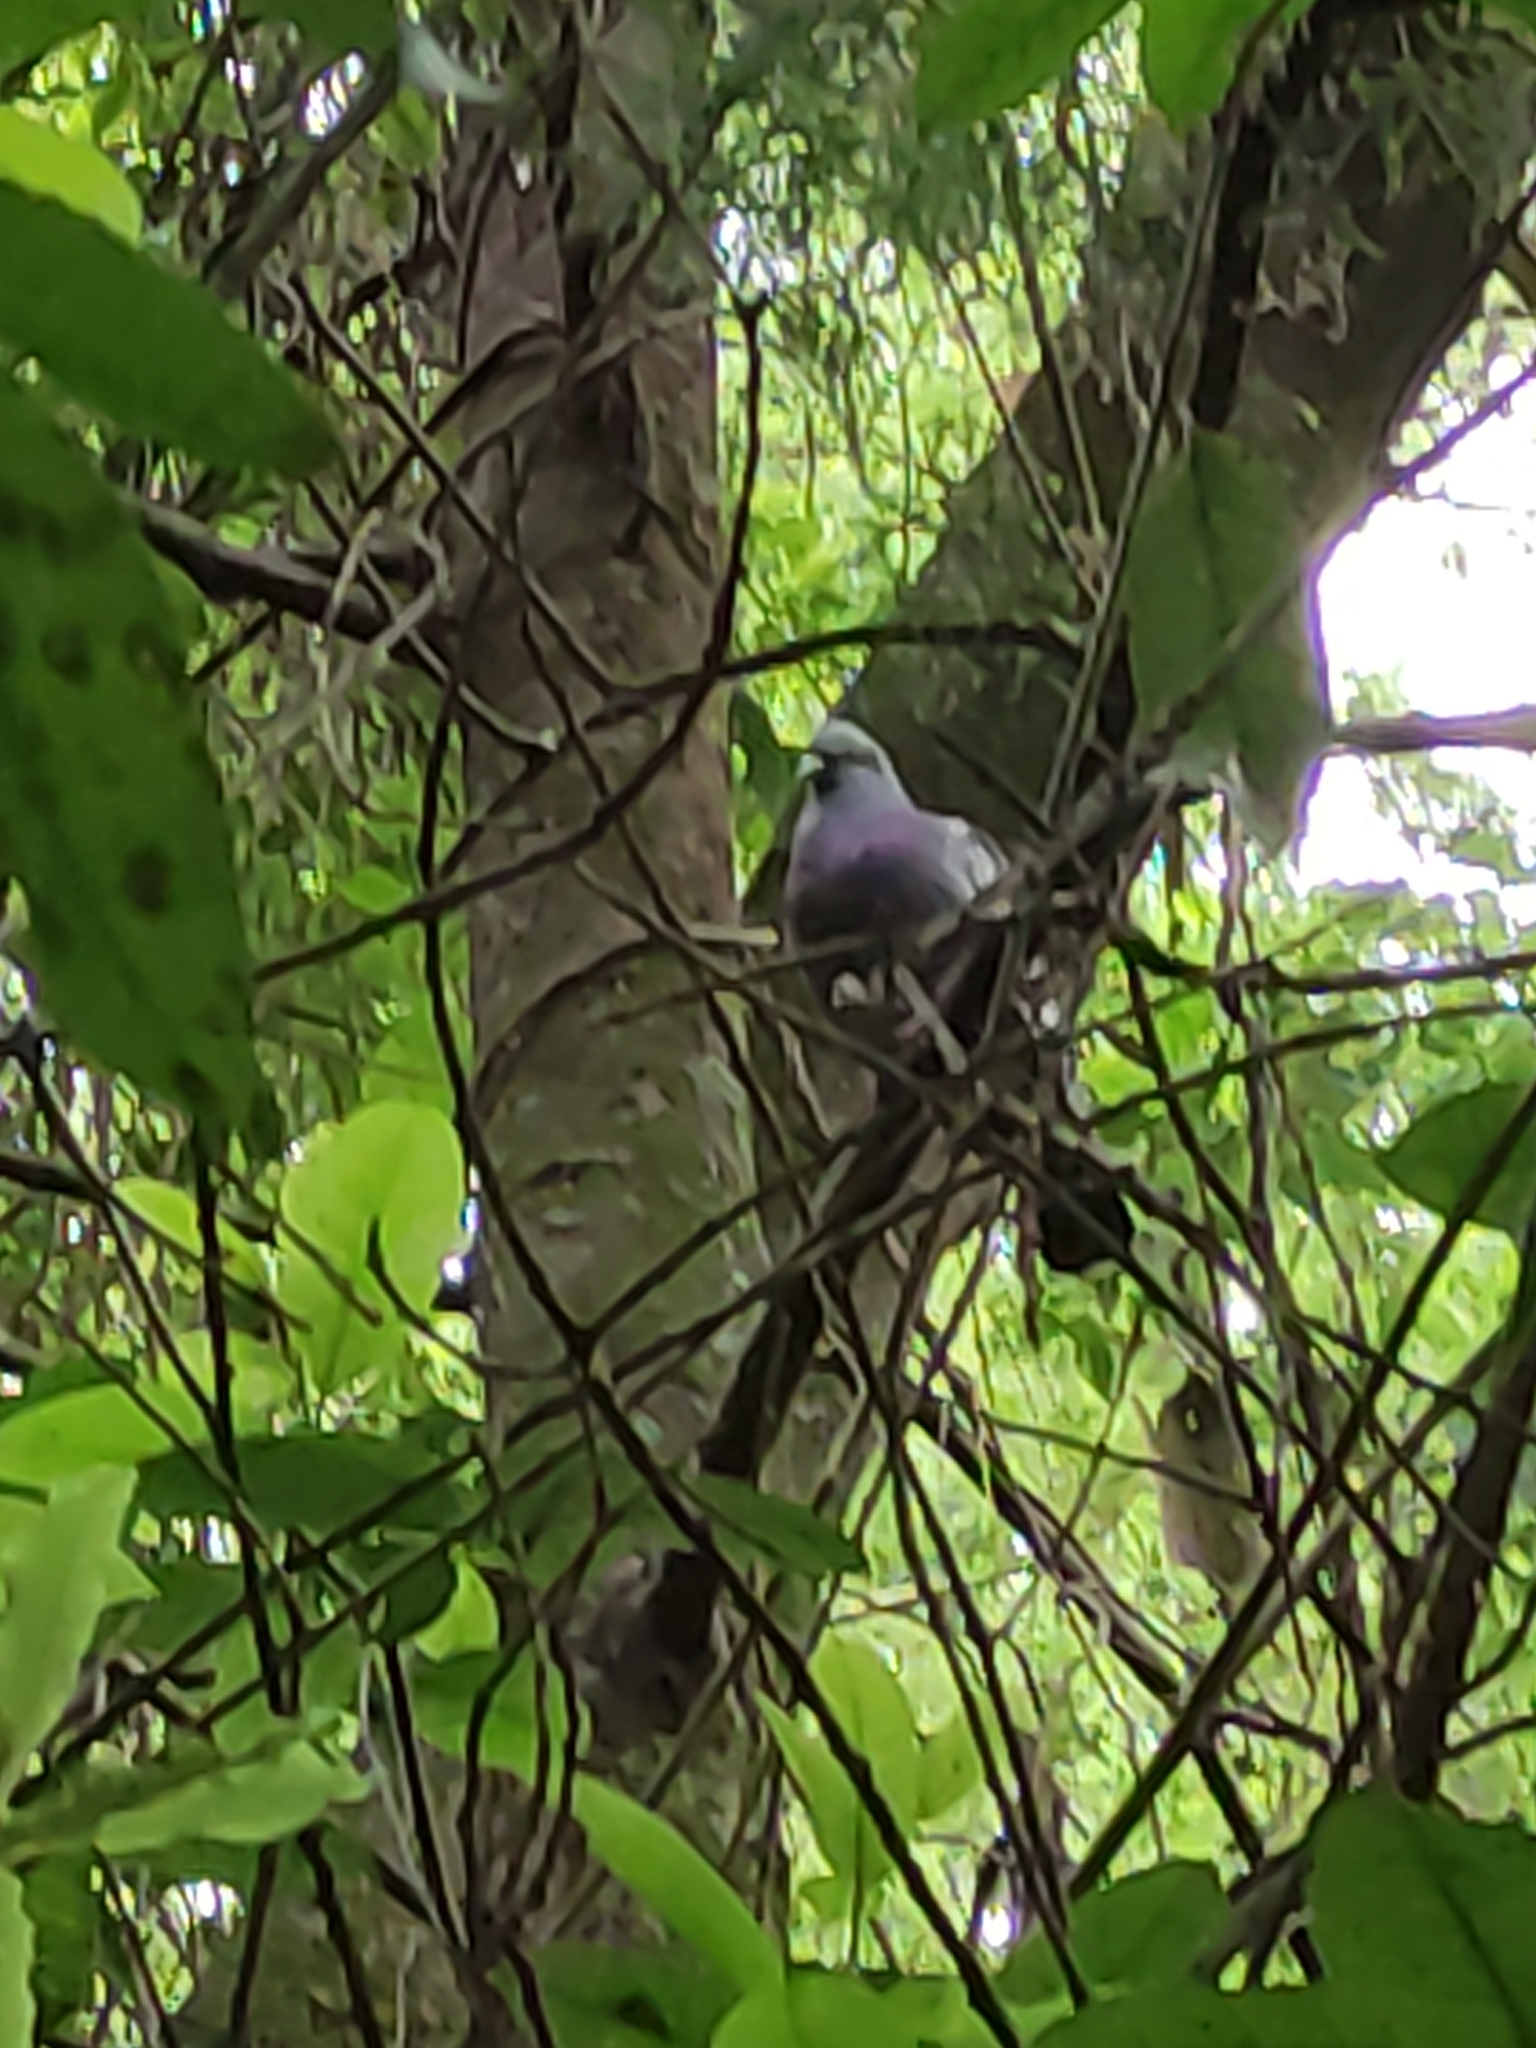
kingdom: Animalia
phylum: Chordata
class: Aves
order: Columbiformes
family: Columbidae
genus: Columba
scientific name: Columba livia
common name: Rock pigeon
